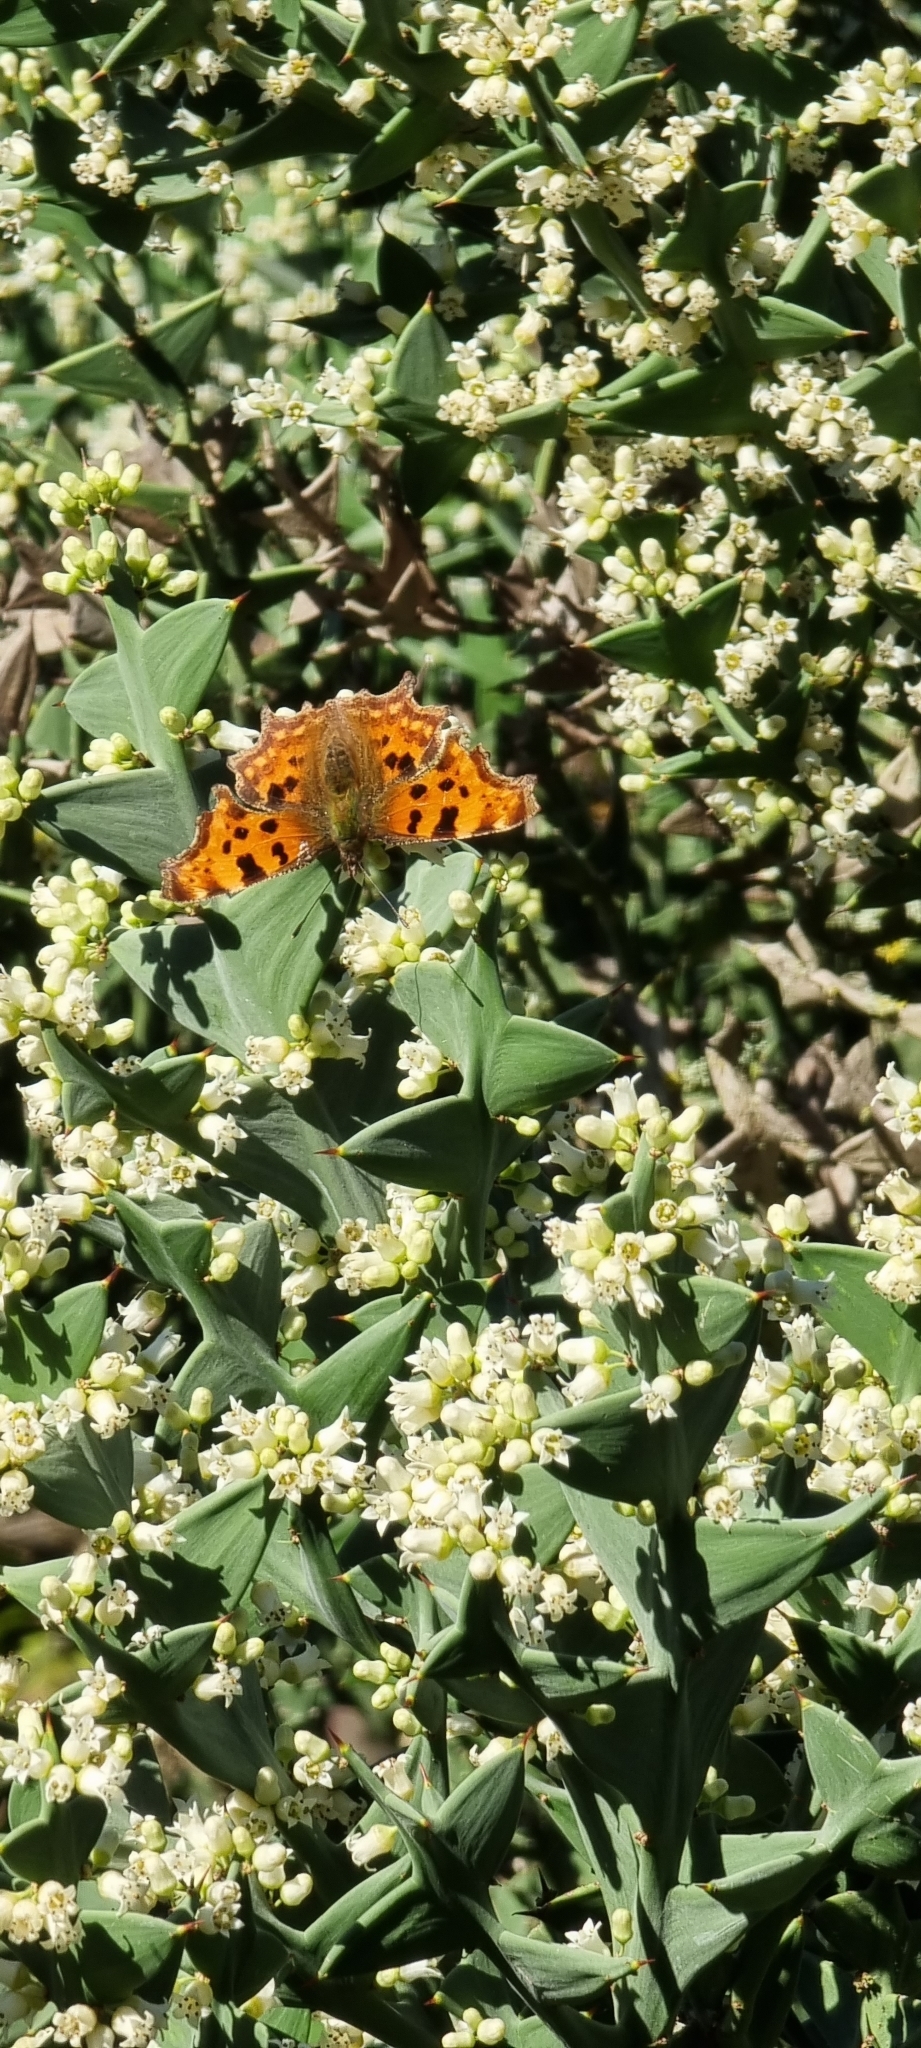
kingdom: Animalia
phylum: Arthropoda
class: Insecta
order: Lepidoptera
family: Nymphalidae
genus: Polygonia
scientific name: Polygonia c-album
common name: Comma
